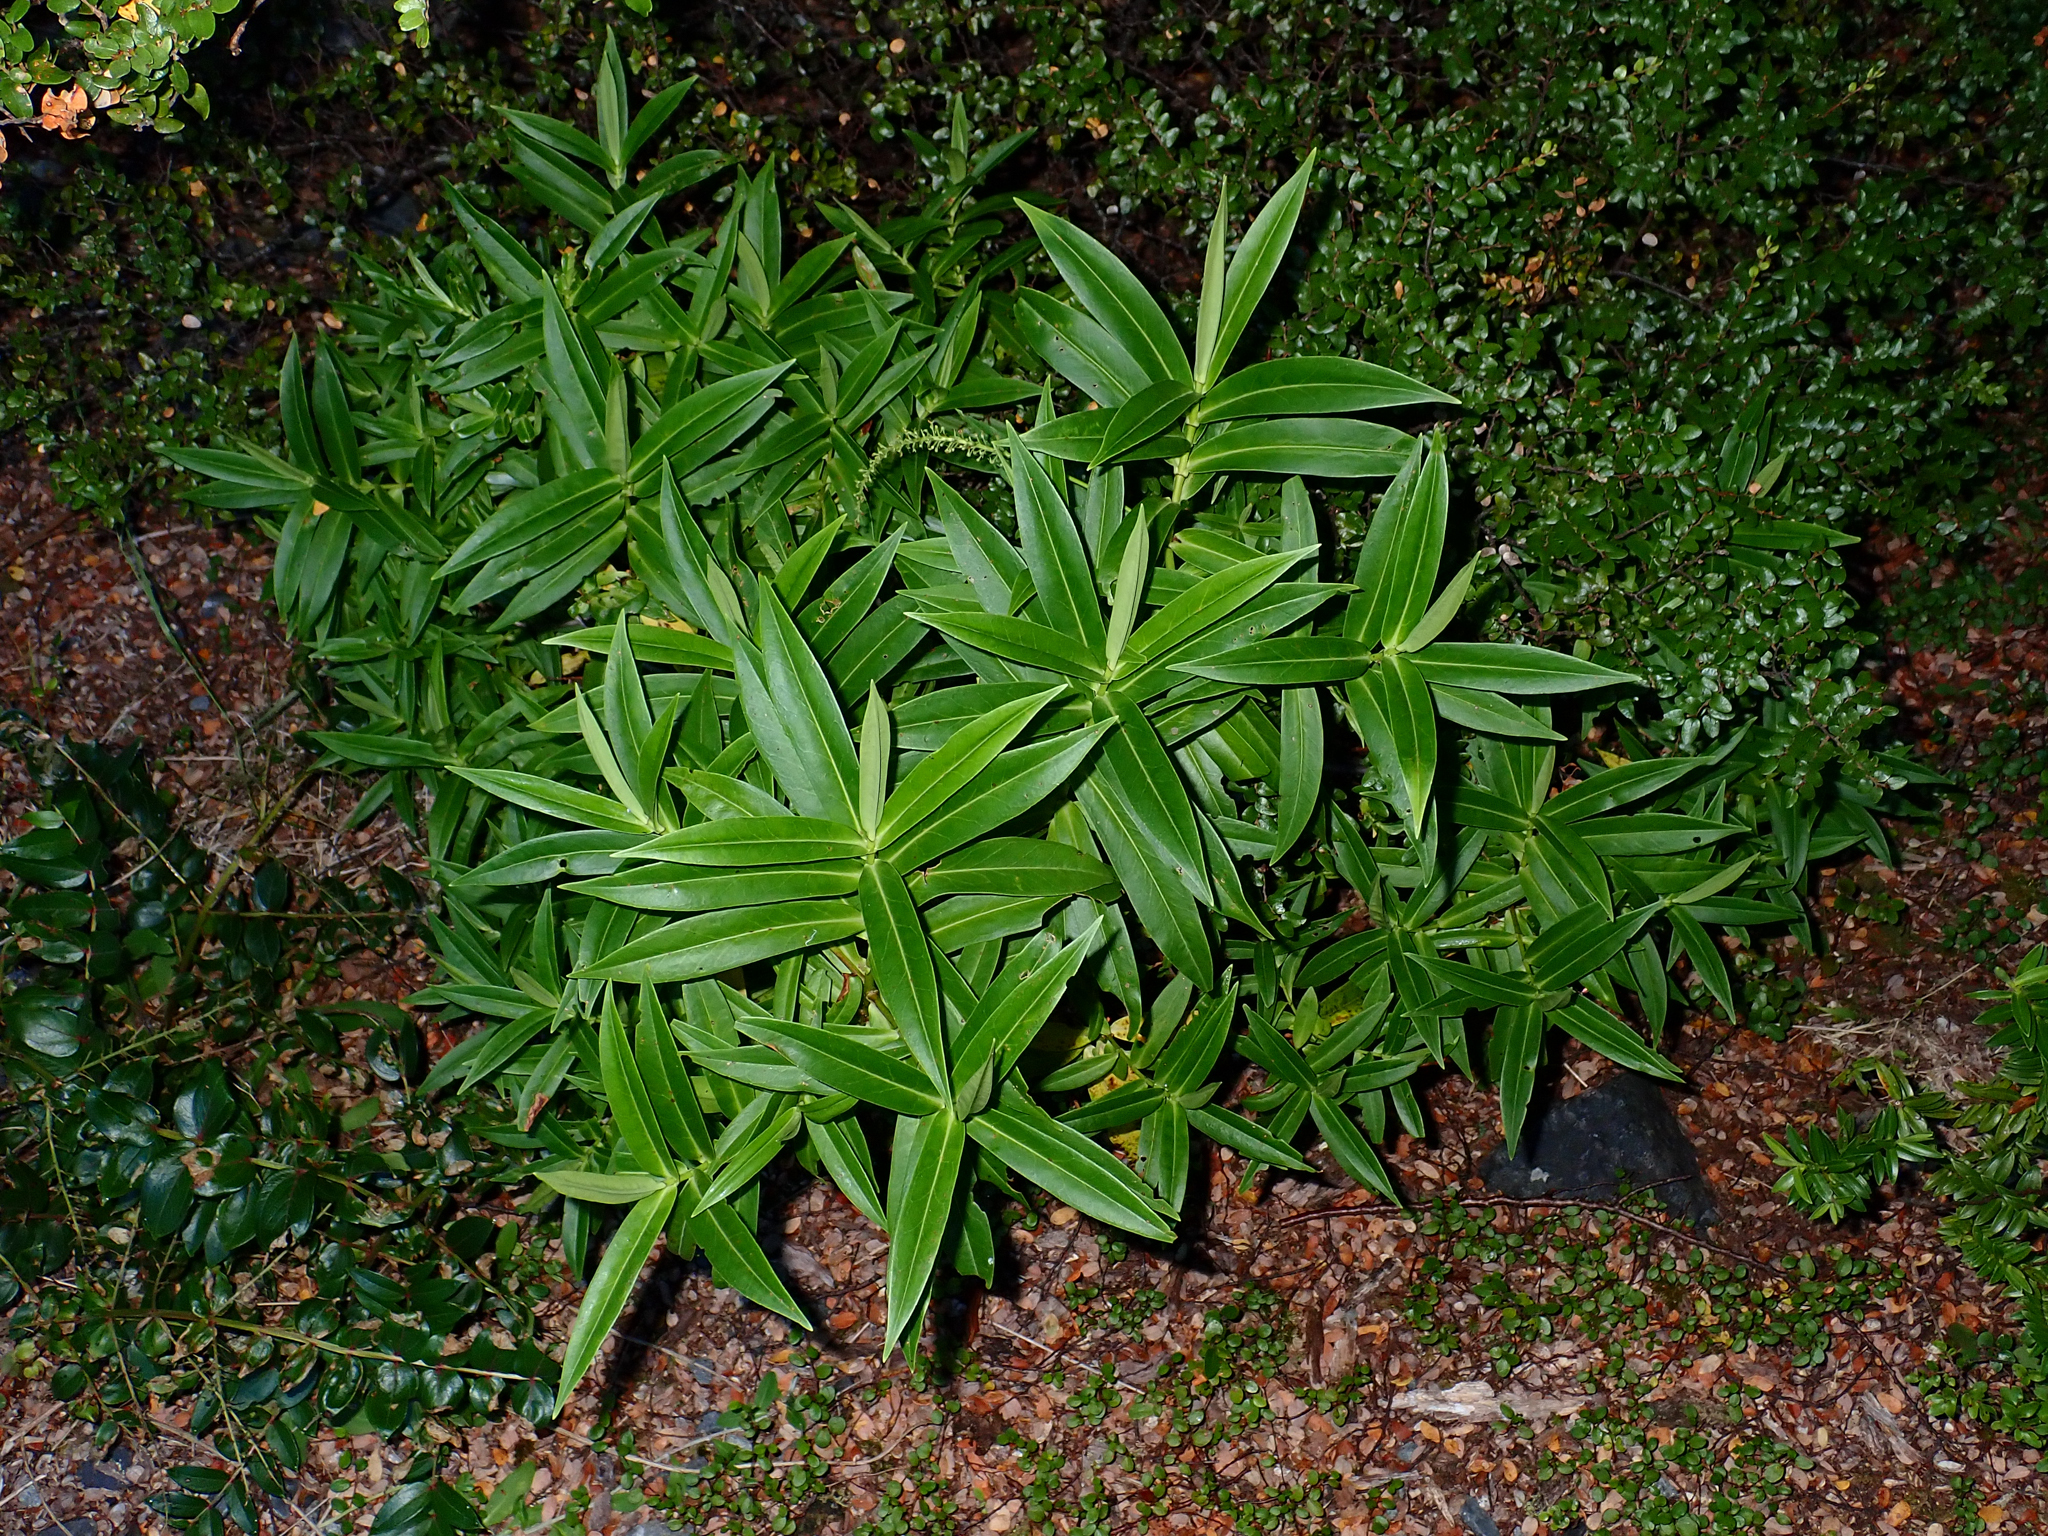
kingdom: Plantae
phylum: Tracheophyta
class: Magnoliopsida
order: Lamiales
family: Plantaginaceae
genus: Veronica
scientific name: Veronica salicifolia
